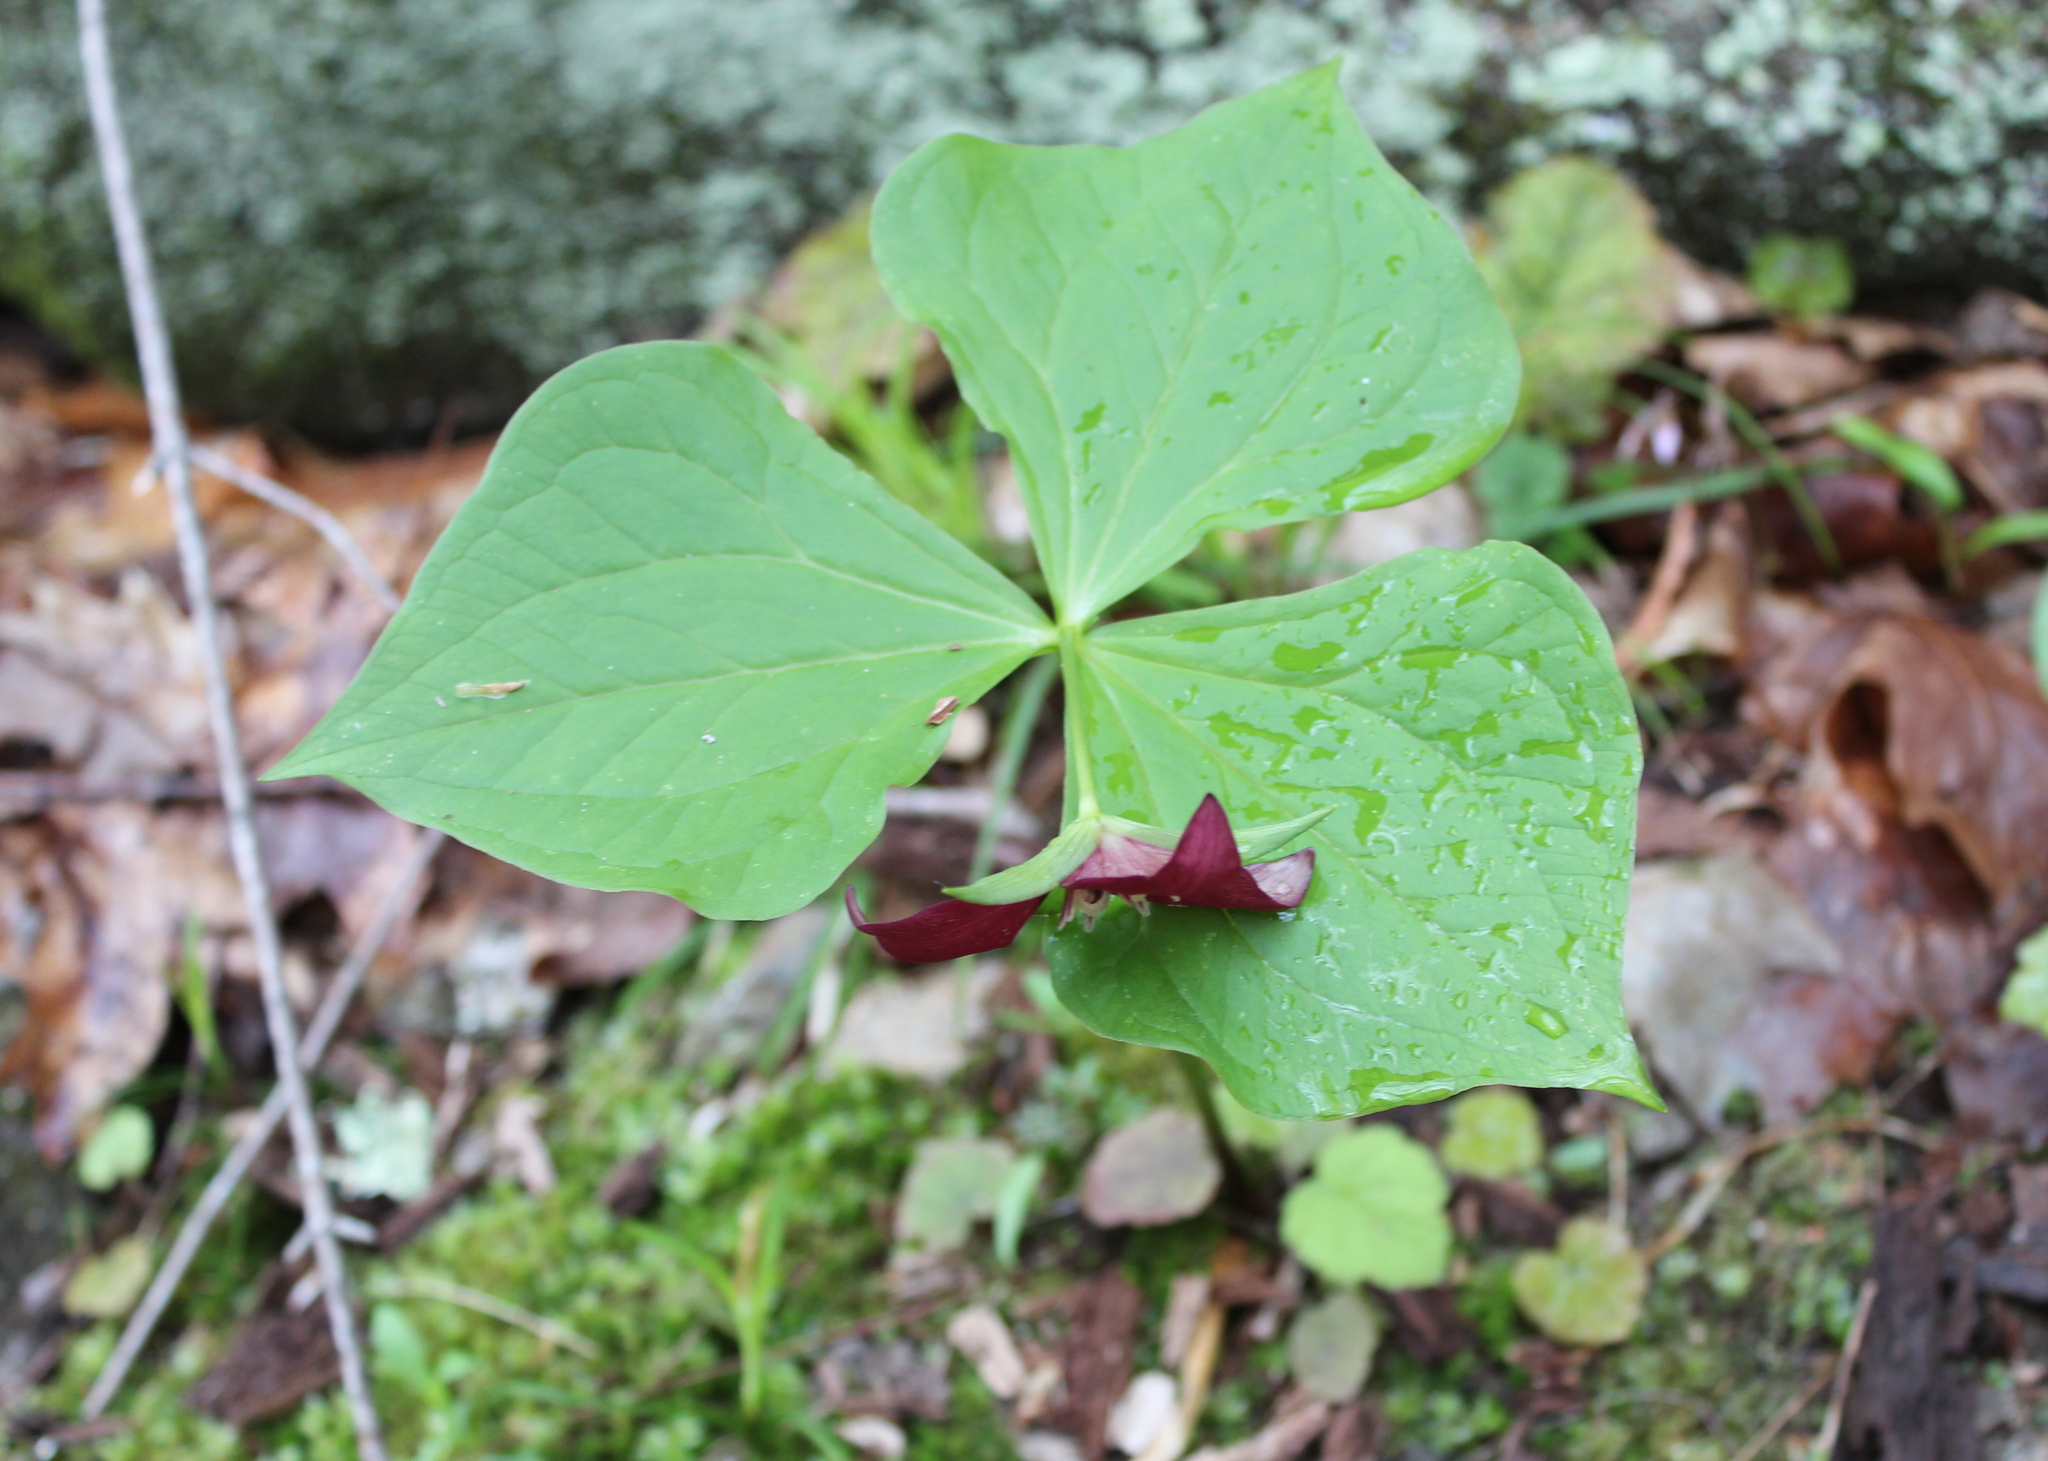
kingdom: Plantae
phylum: Tracheophyta
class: Liliopsida
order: Liliales
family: Melanthiaceae
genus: Trillium
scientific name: Trillium erectum
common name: Purple trillium
